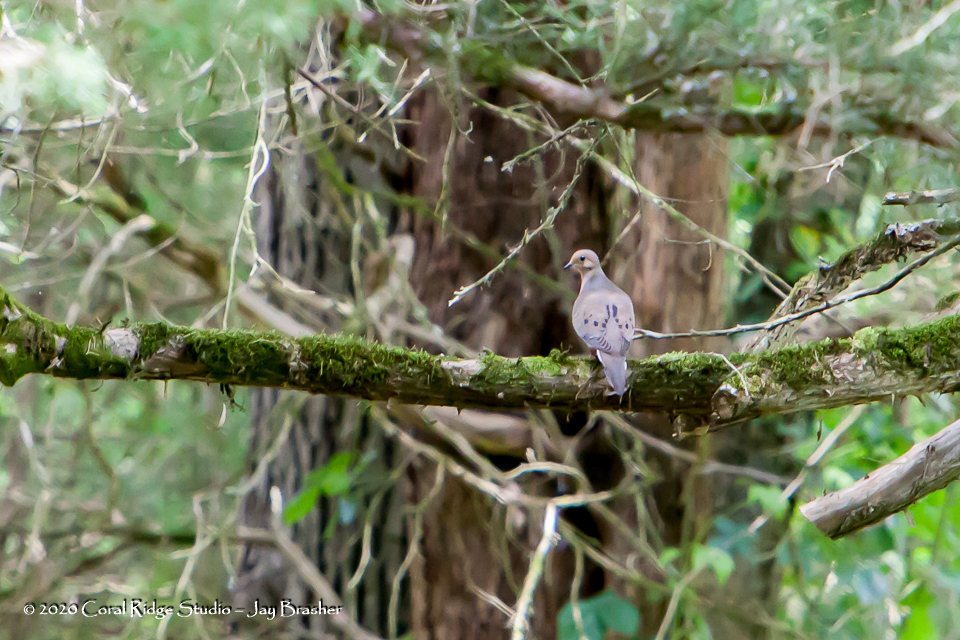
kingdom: Animalia
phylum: Chordata
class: Aves
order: Columbiformes
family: Columbidae
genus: Zenaida
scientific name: Zenaida macroura
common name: Mourning dove
